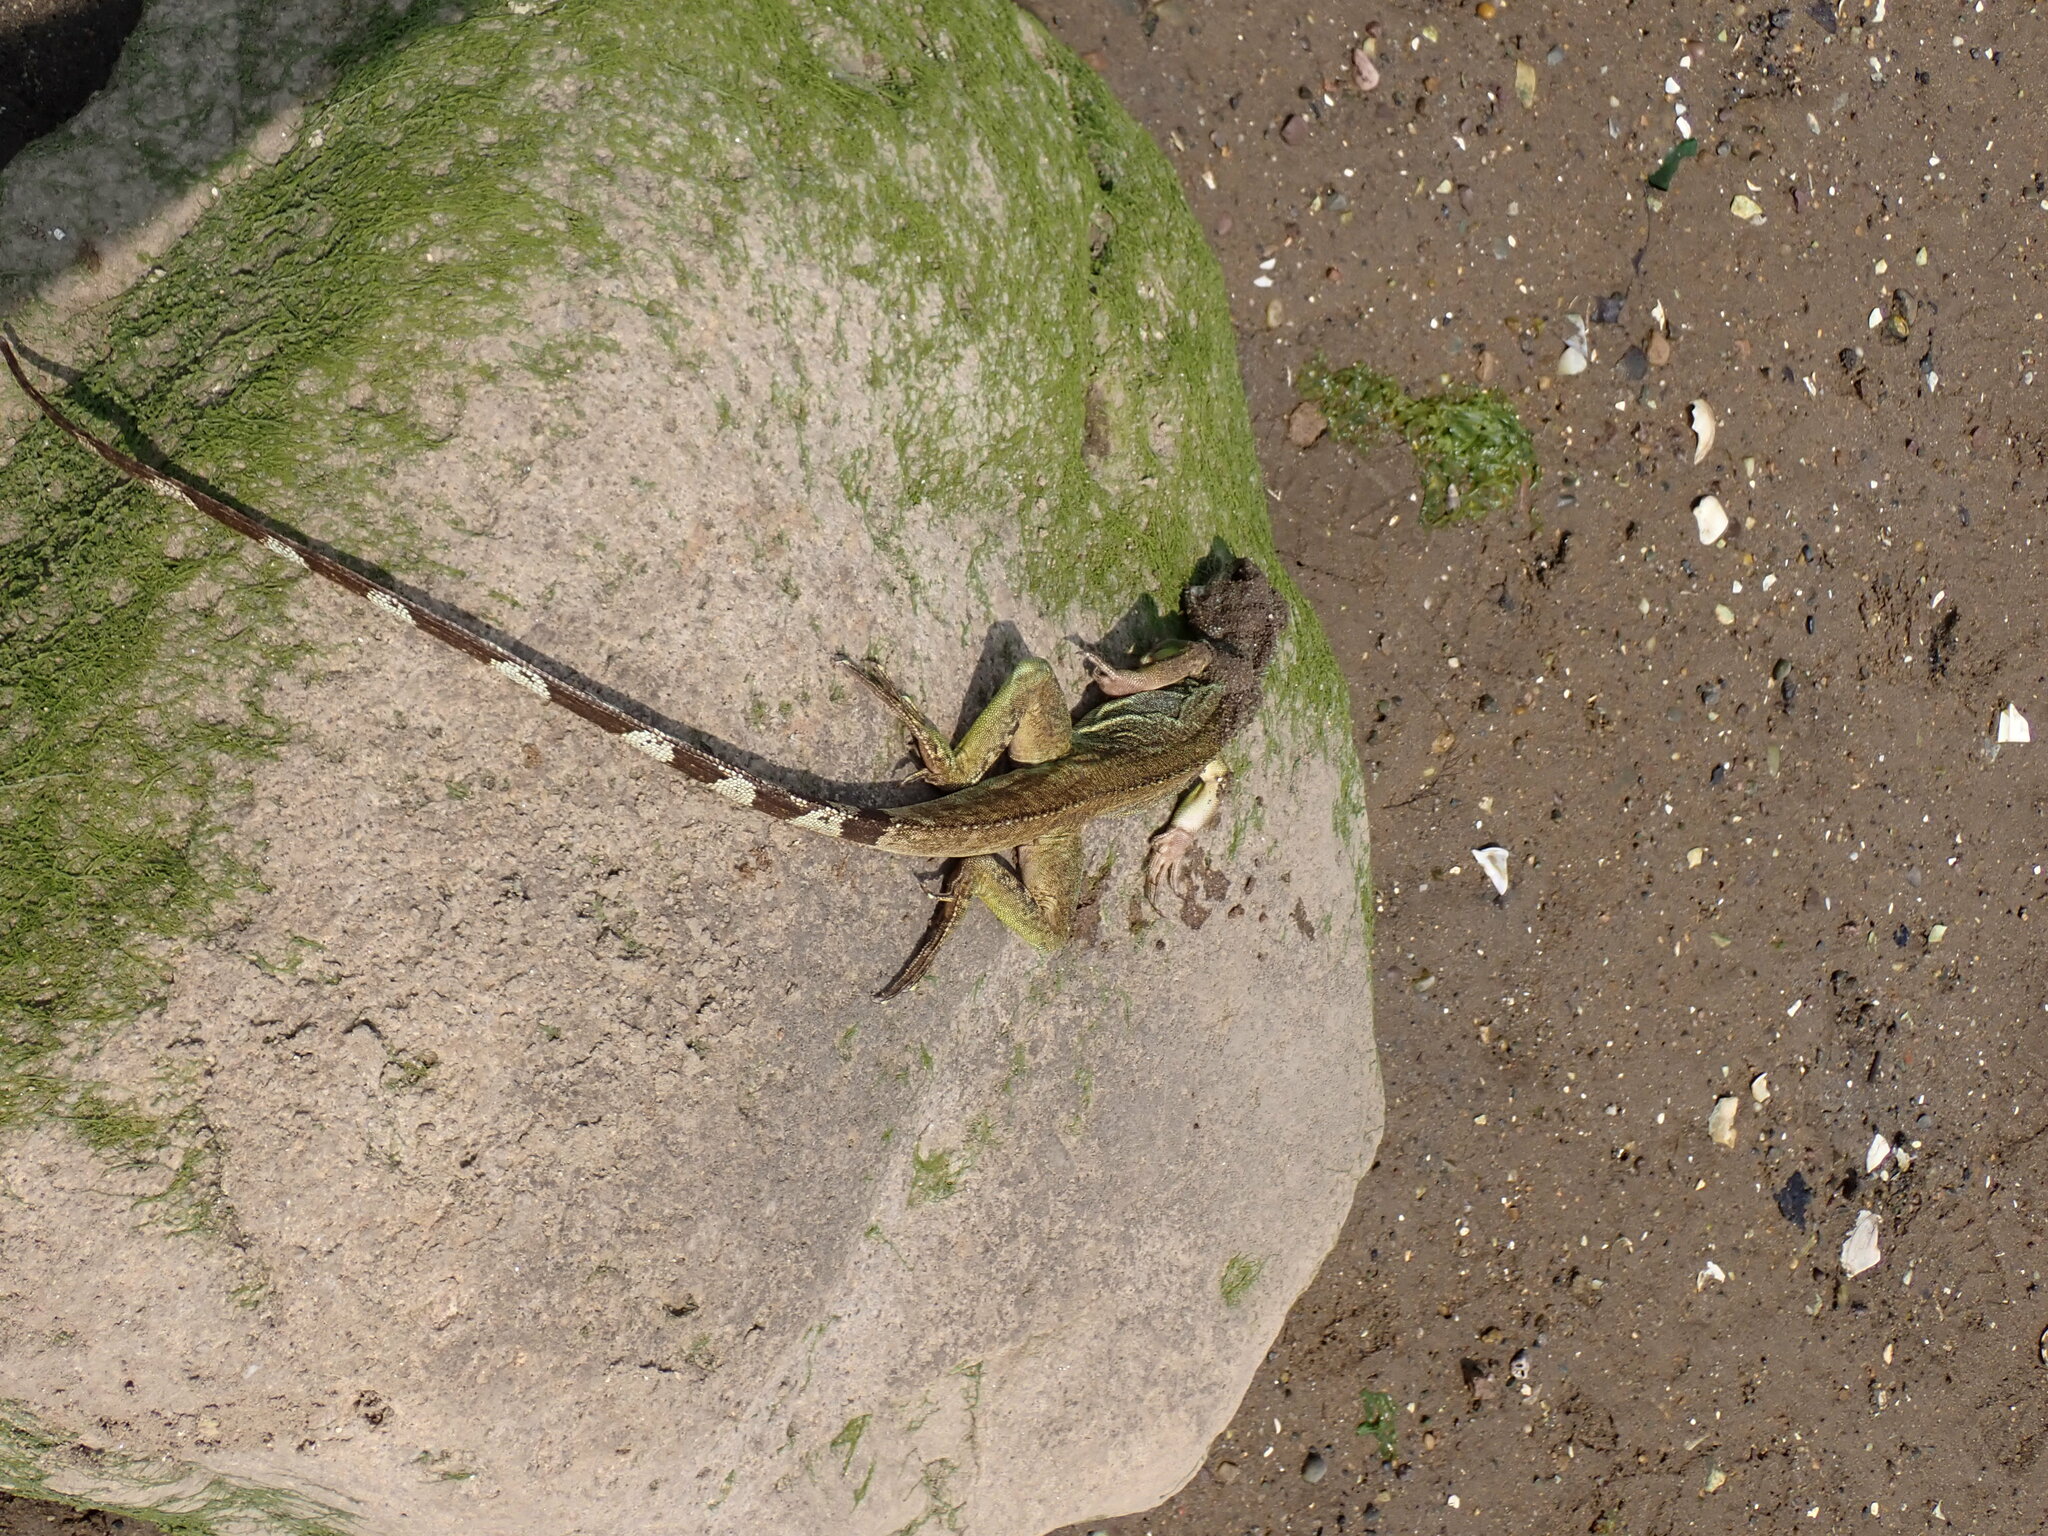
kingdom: Animalia
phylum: Chordata
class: Squamata
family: Agamidae
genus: Physignathus
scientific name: Physignathus cocincinus
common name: Asian water dragon
